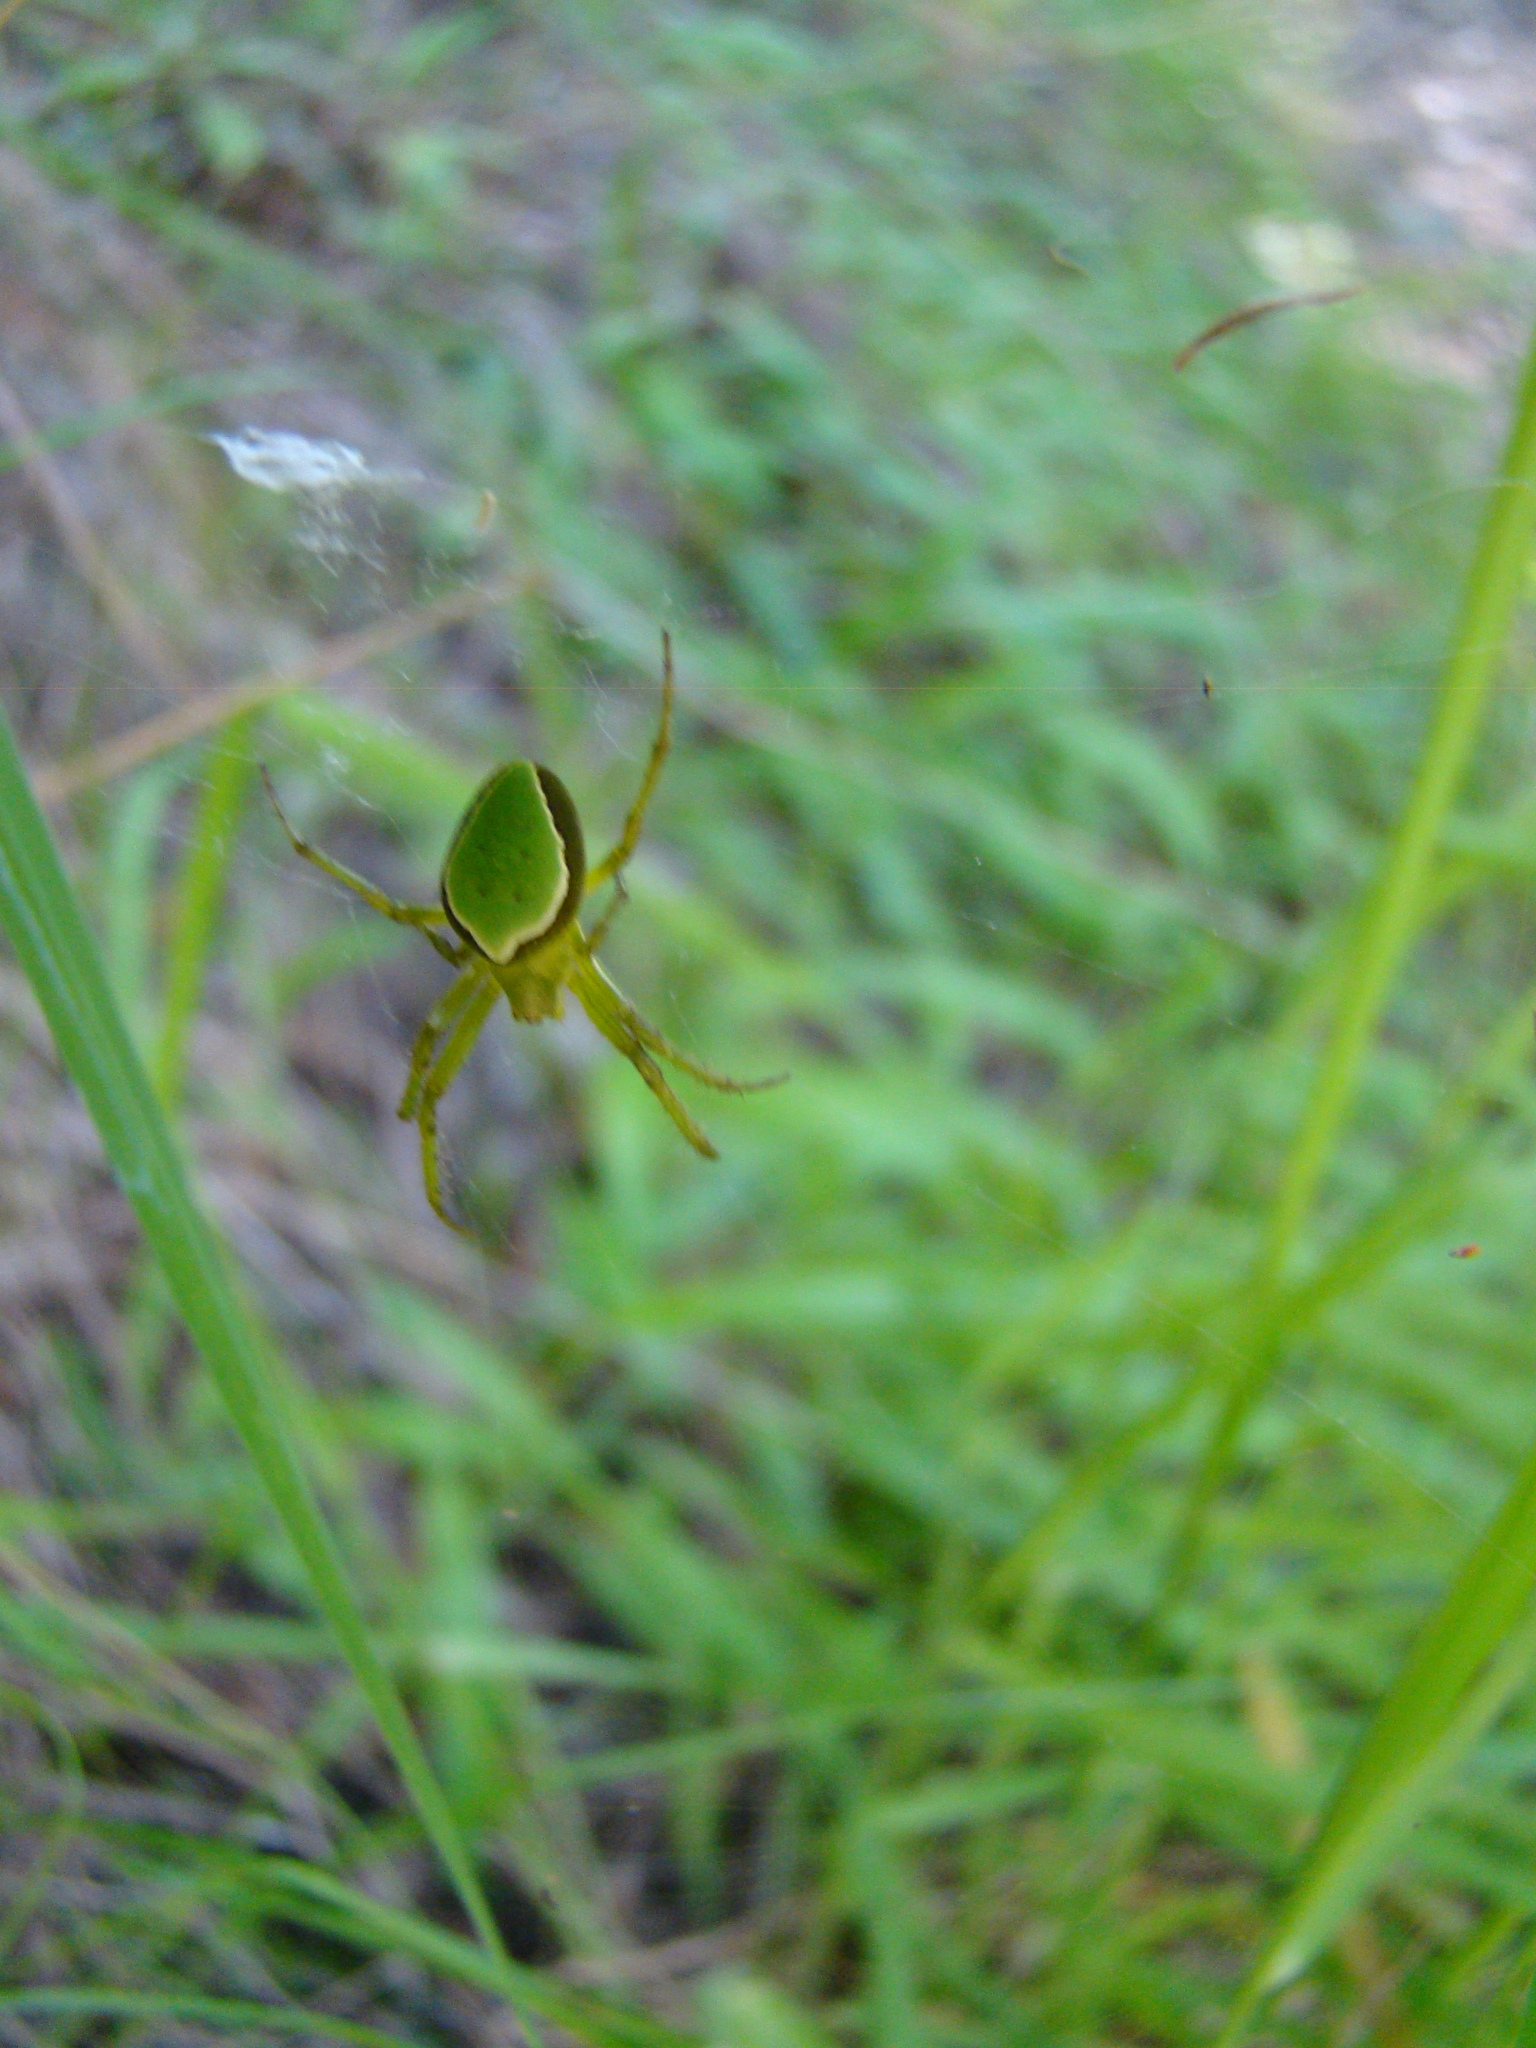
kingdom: Animalia
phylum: Arthropoda
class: Arachnida
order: Araneae
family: Araneidae
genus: Colaranea
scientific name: Colaranea viriditas
